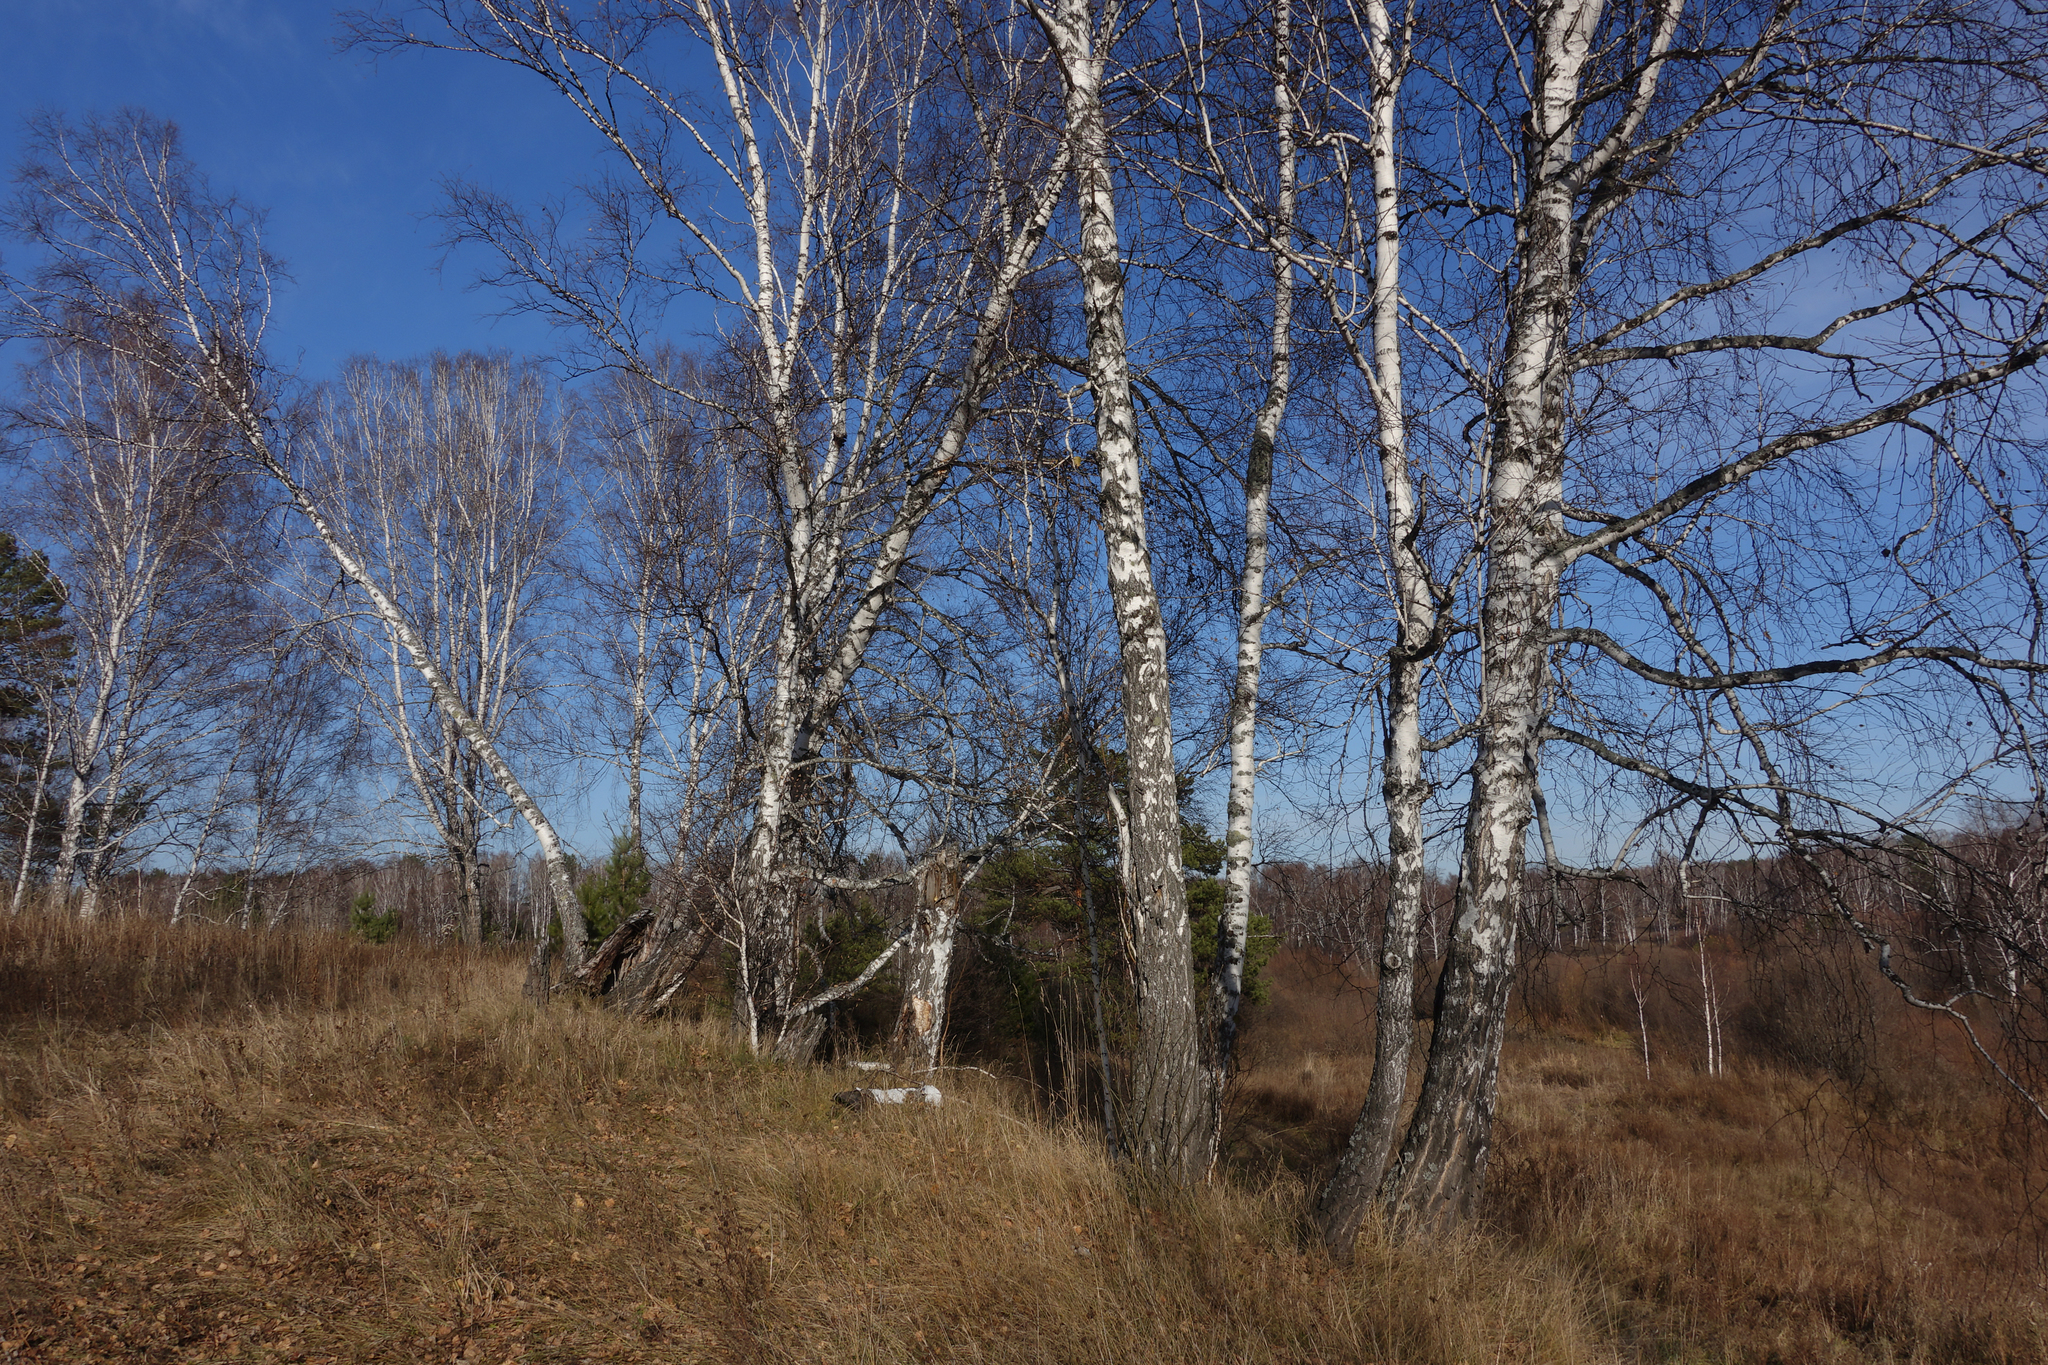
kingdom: Plantae
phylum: Tracheophyta
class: Magnoliopsida
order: Fagales
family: Betulaceae
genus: Betula
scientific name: Betula pendula
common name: Silver birch
